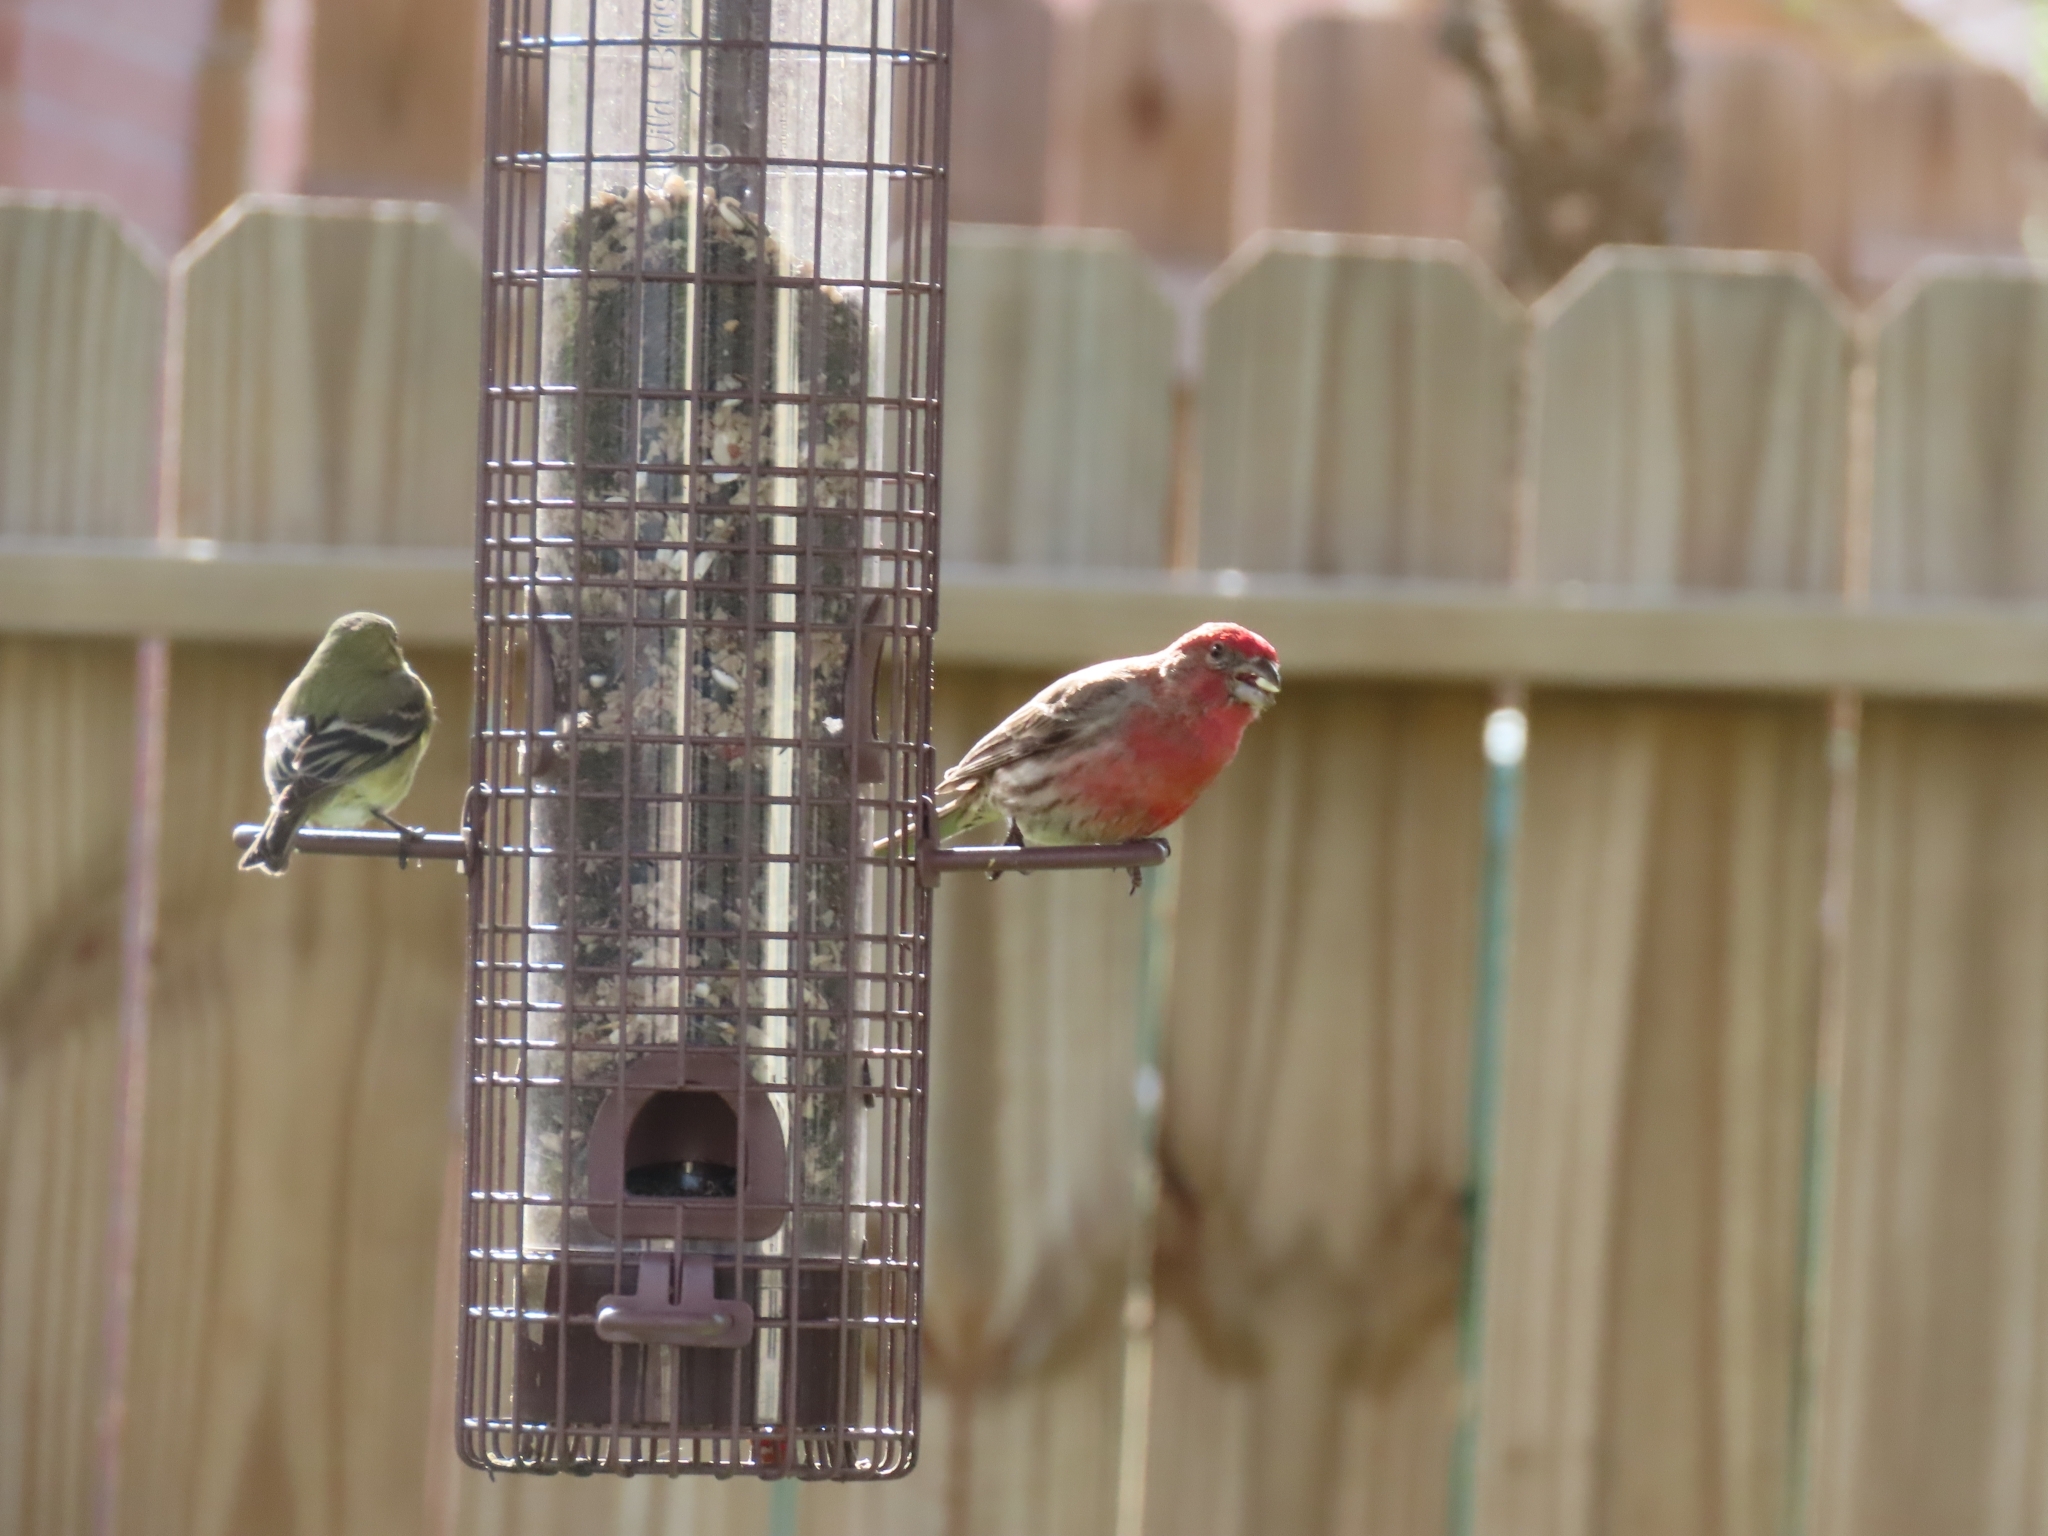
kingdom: Animalia
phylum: Chordata
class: Aves
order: Passeriformes
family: Fringillidae
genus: Haemorhous
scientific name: Haemorhous mexicanus
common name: House finch
